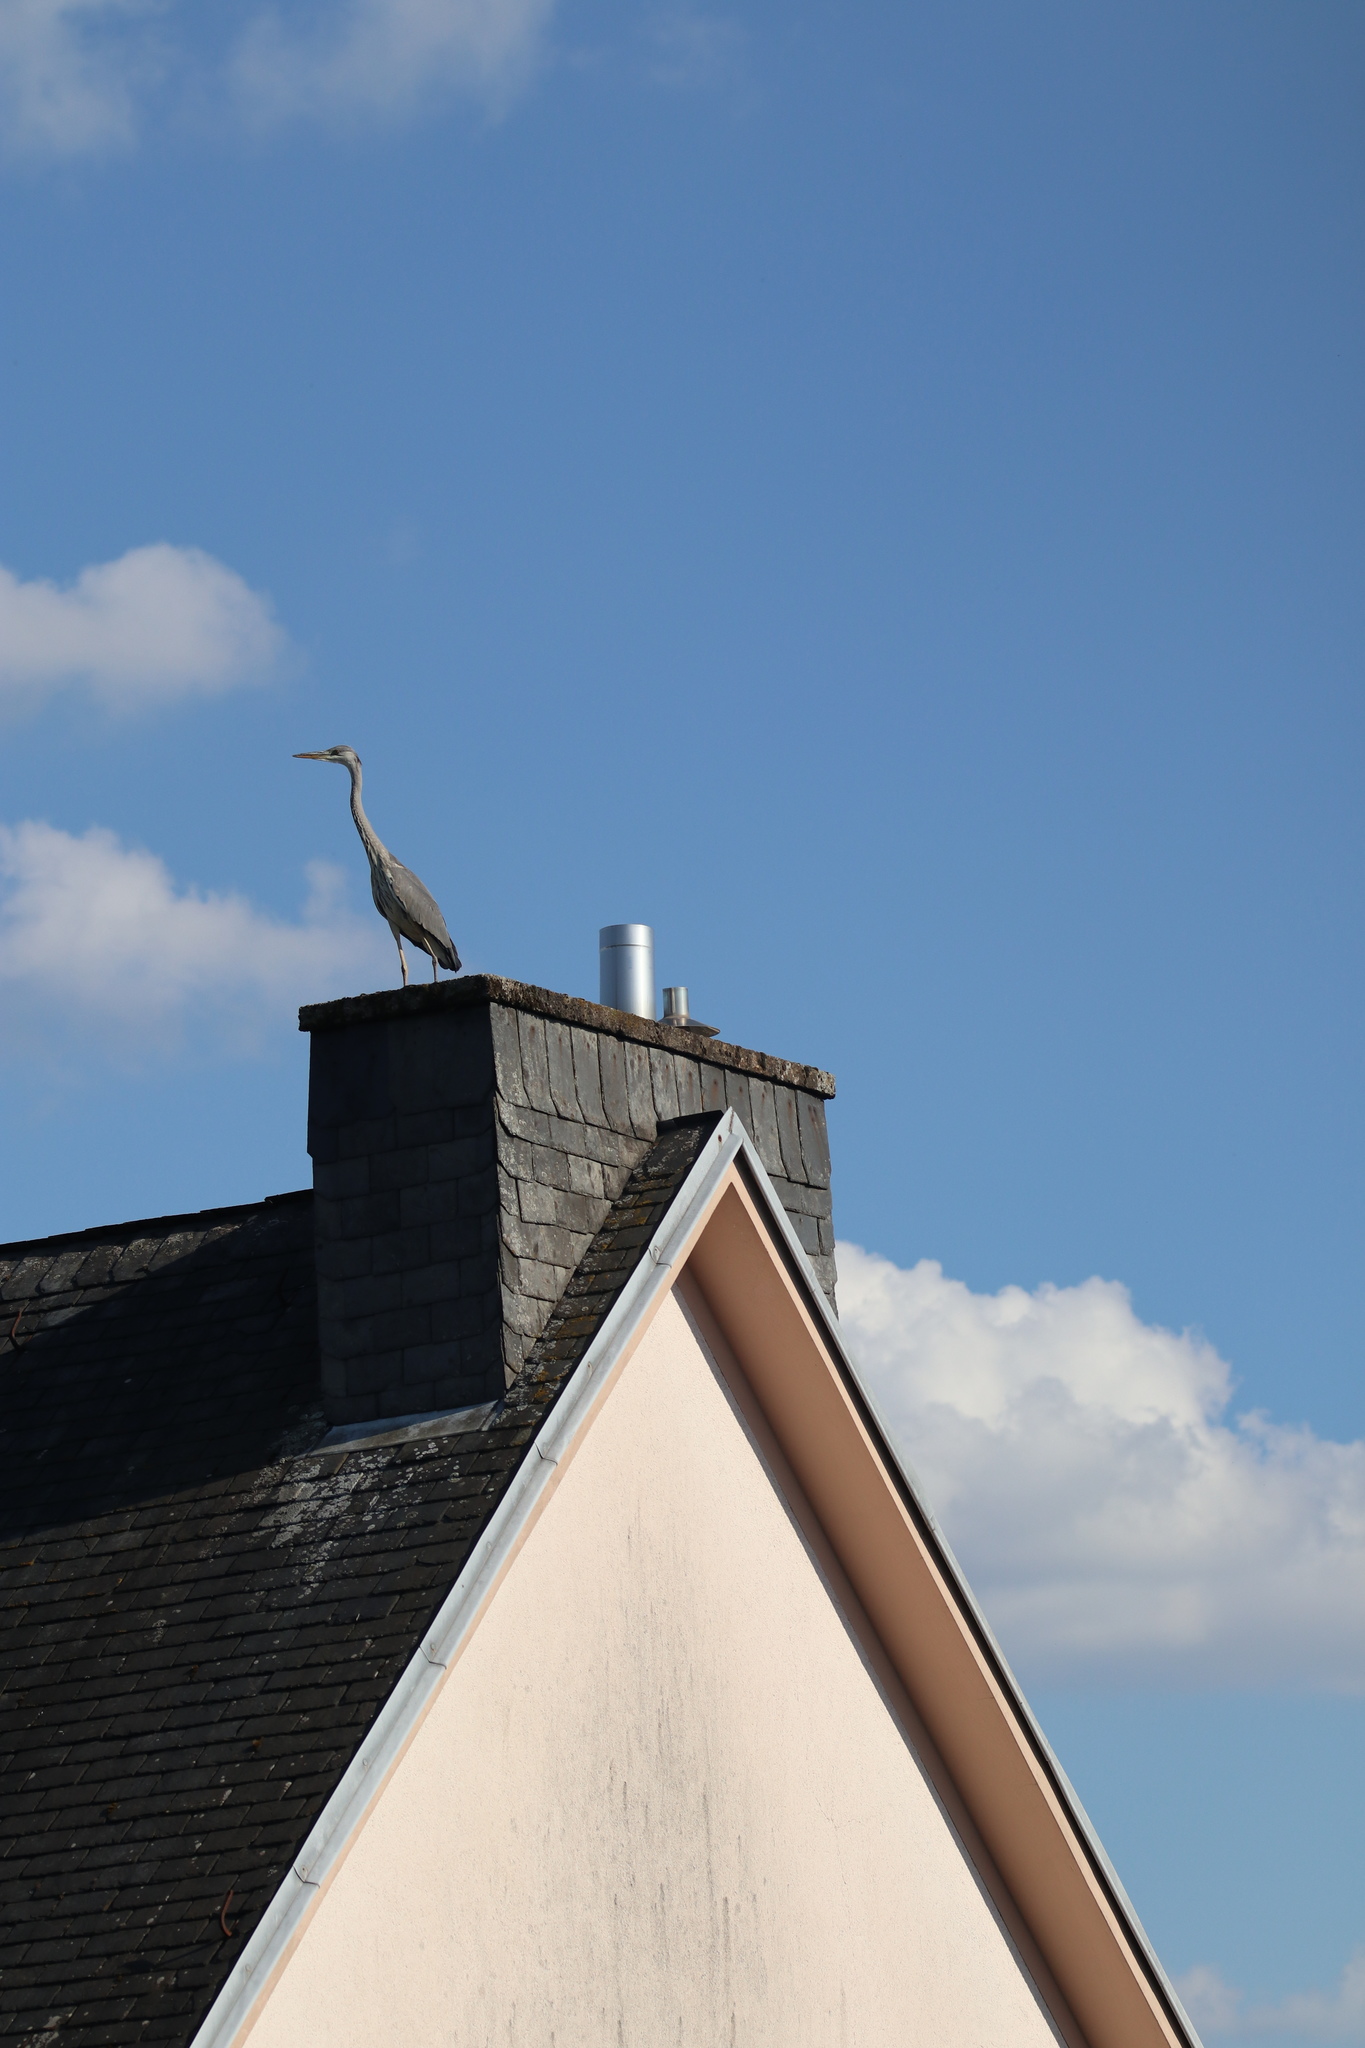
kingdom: Animalia
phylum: Chordata
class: Aves
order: Pelecaniformes
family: Ardeidae
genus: Ardea
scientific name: Ardea cinerea
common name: Grey heron
